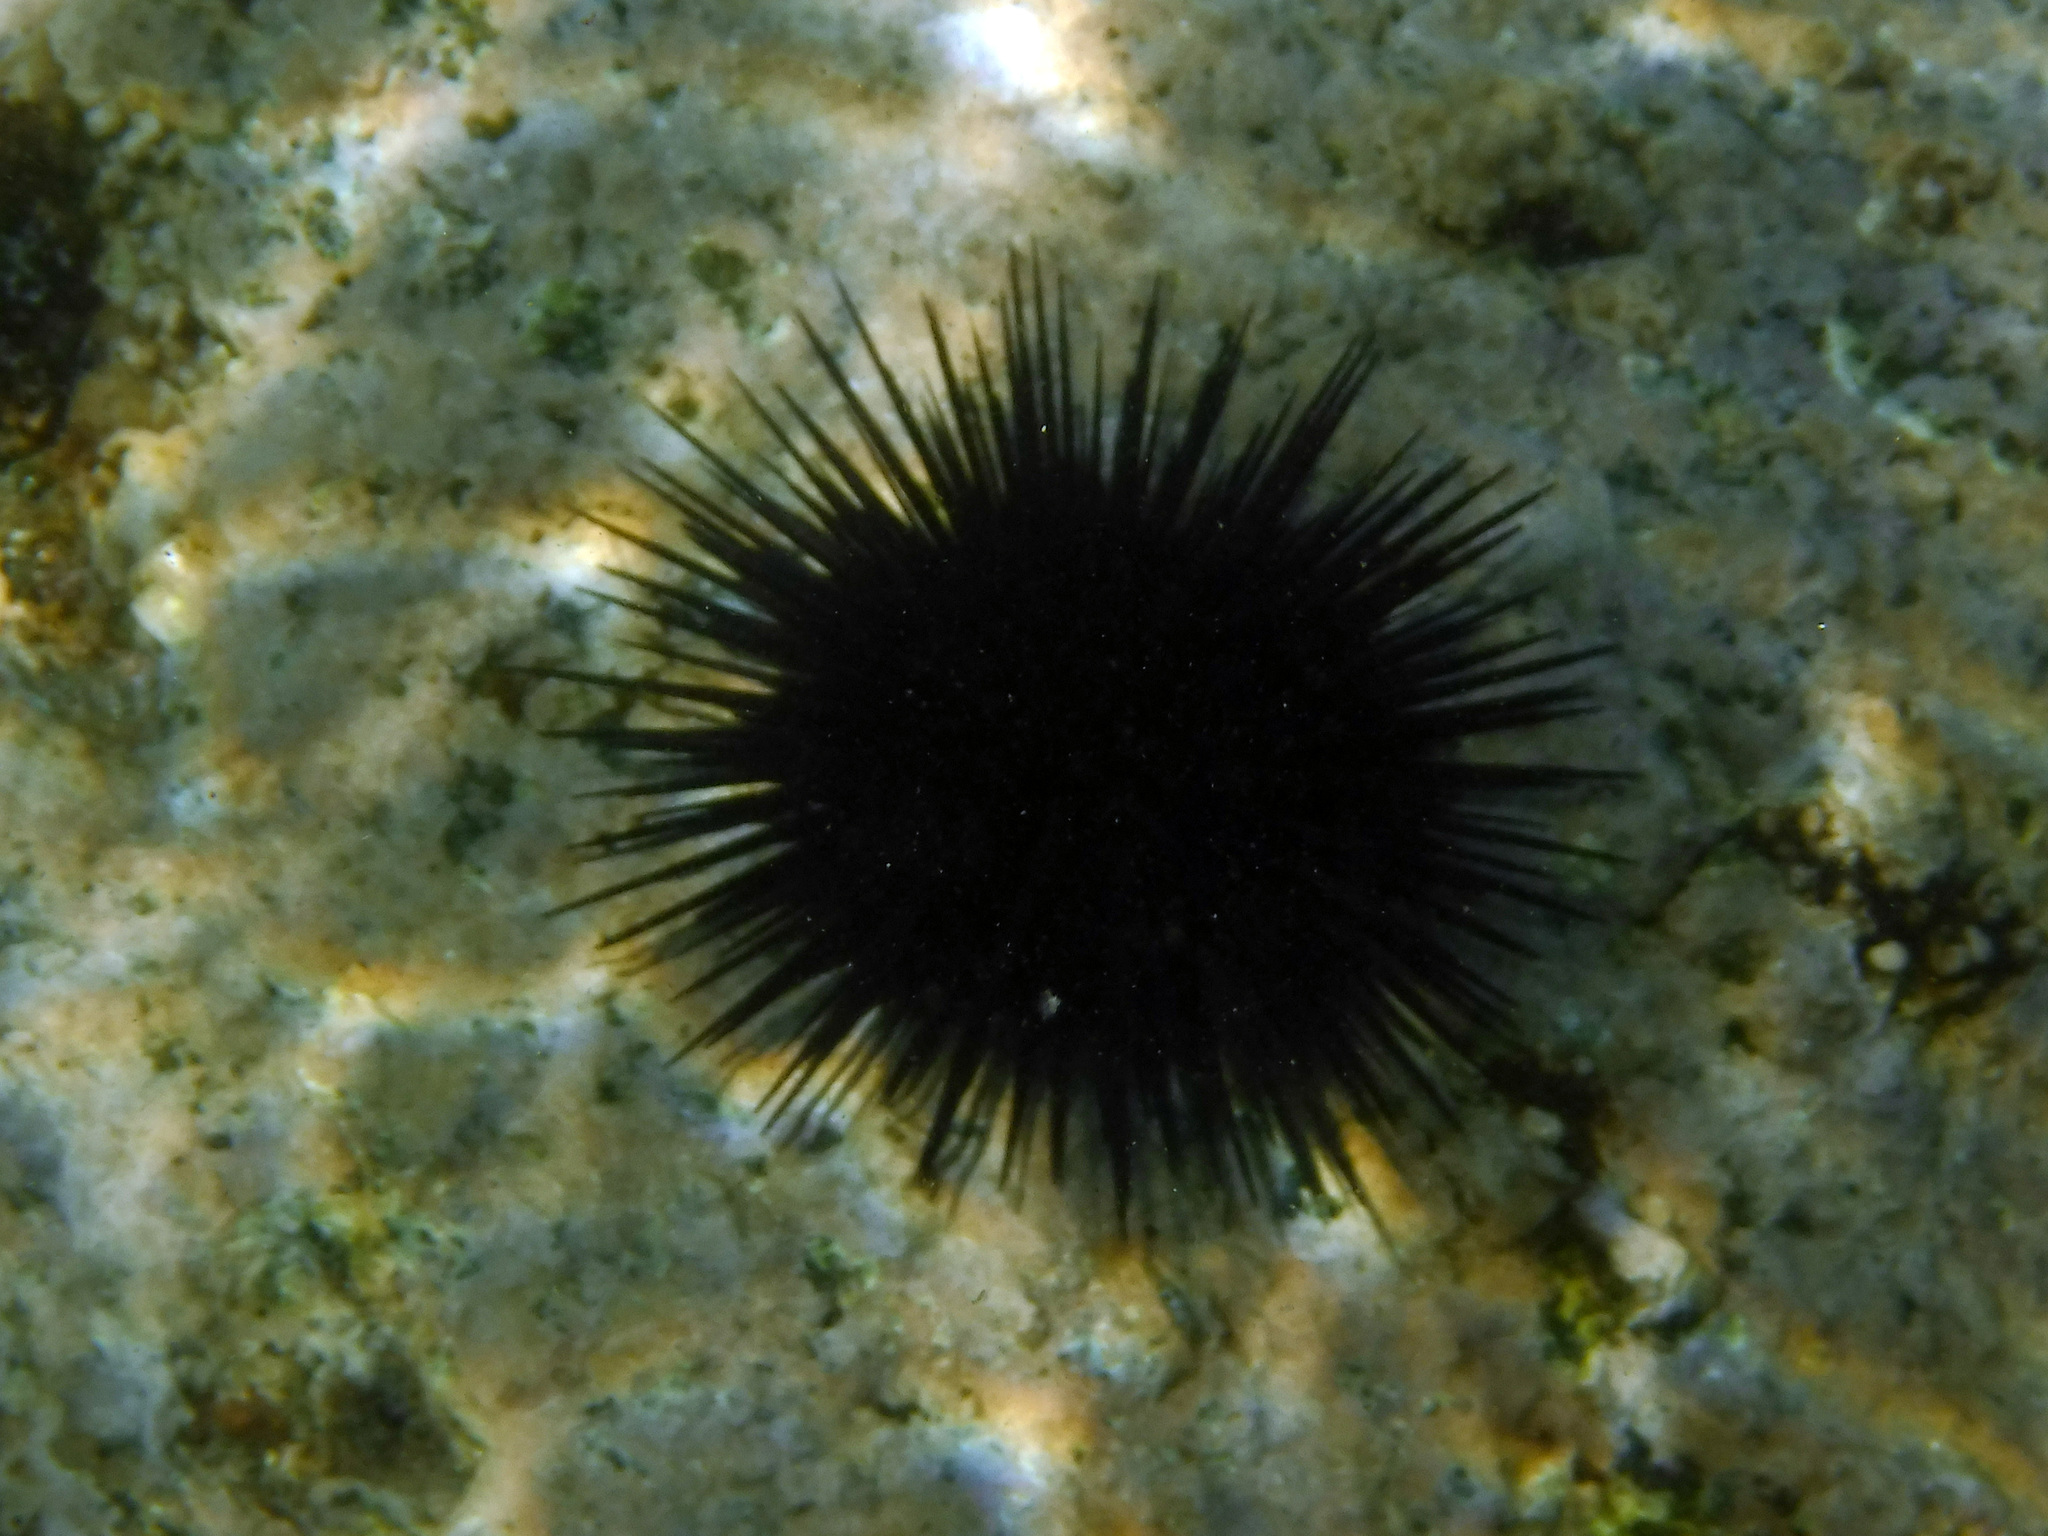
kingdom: Animalia
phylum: Echinodermata
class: Echinoidea
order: Camarodonta
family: Echinometridae
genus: Echinometra
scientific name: Echinometra vanbrunti
